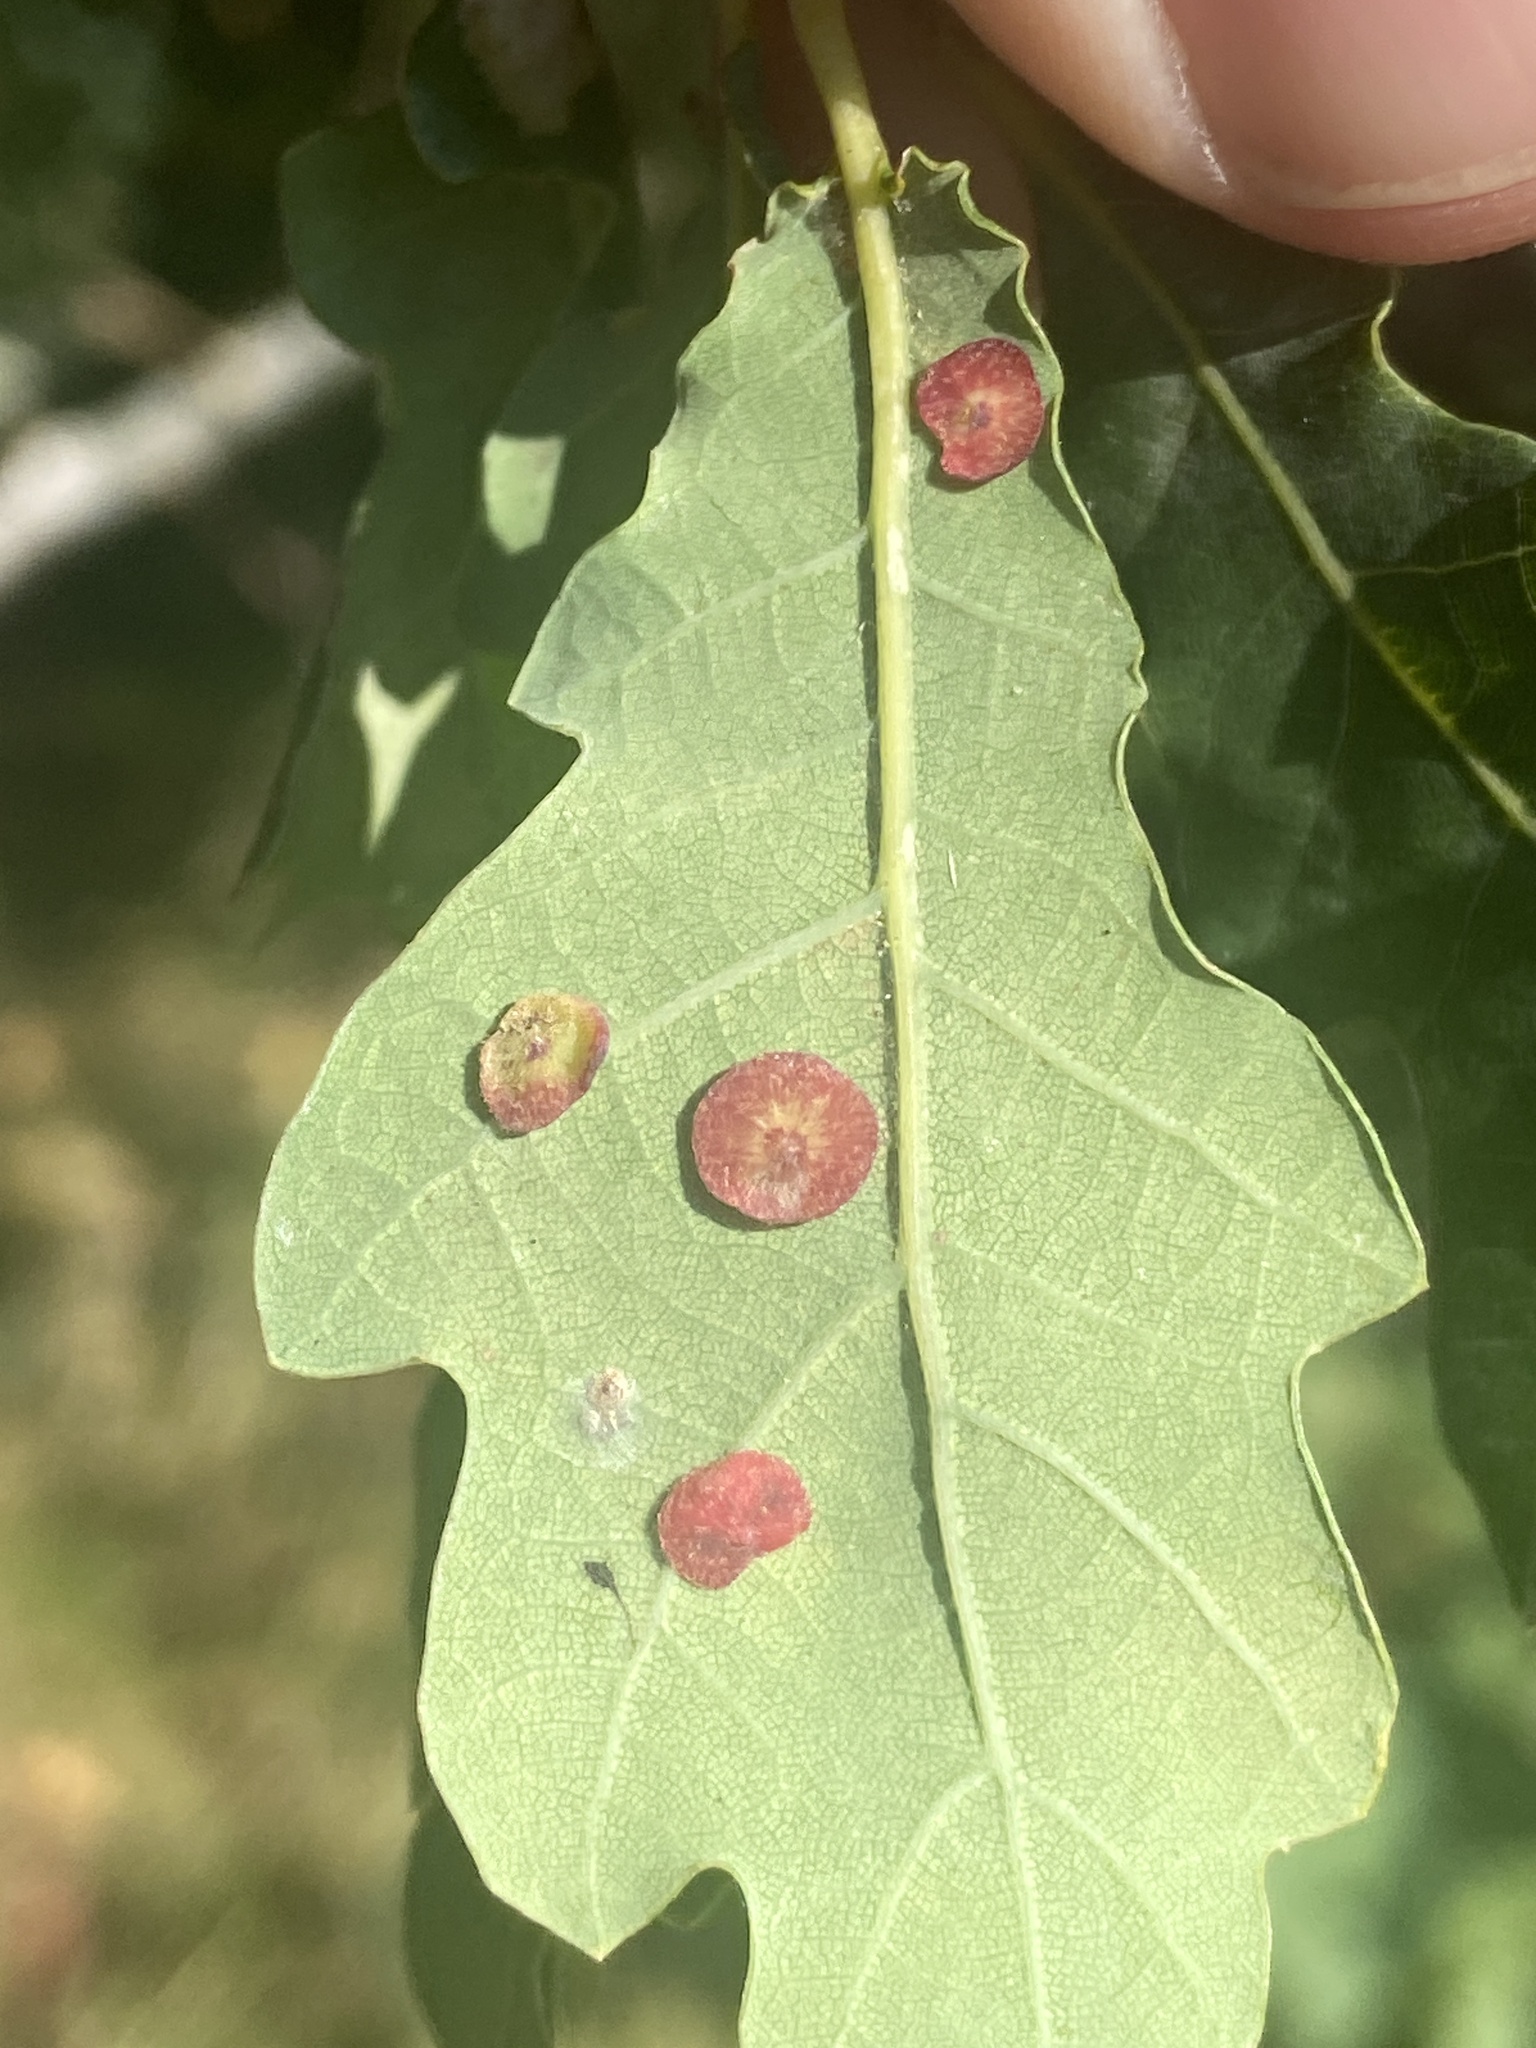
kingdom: Animalia
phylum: Arthropoda
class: Insecta
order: Hymenoptera
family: Cynipidae
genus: Neuroterus
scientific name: Neuroterus quercusbaccarum
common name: Common spangle gall
